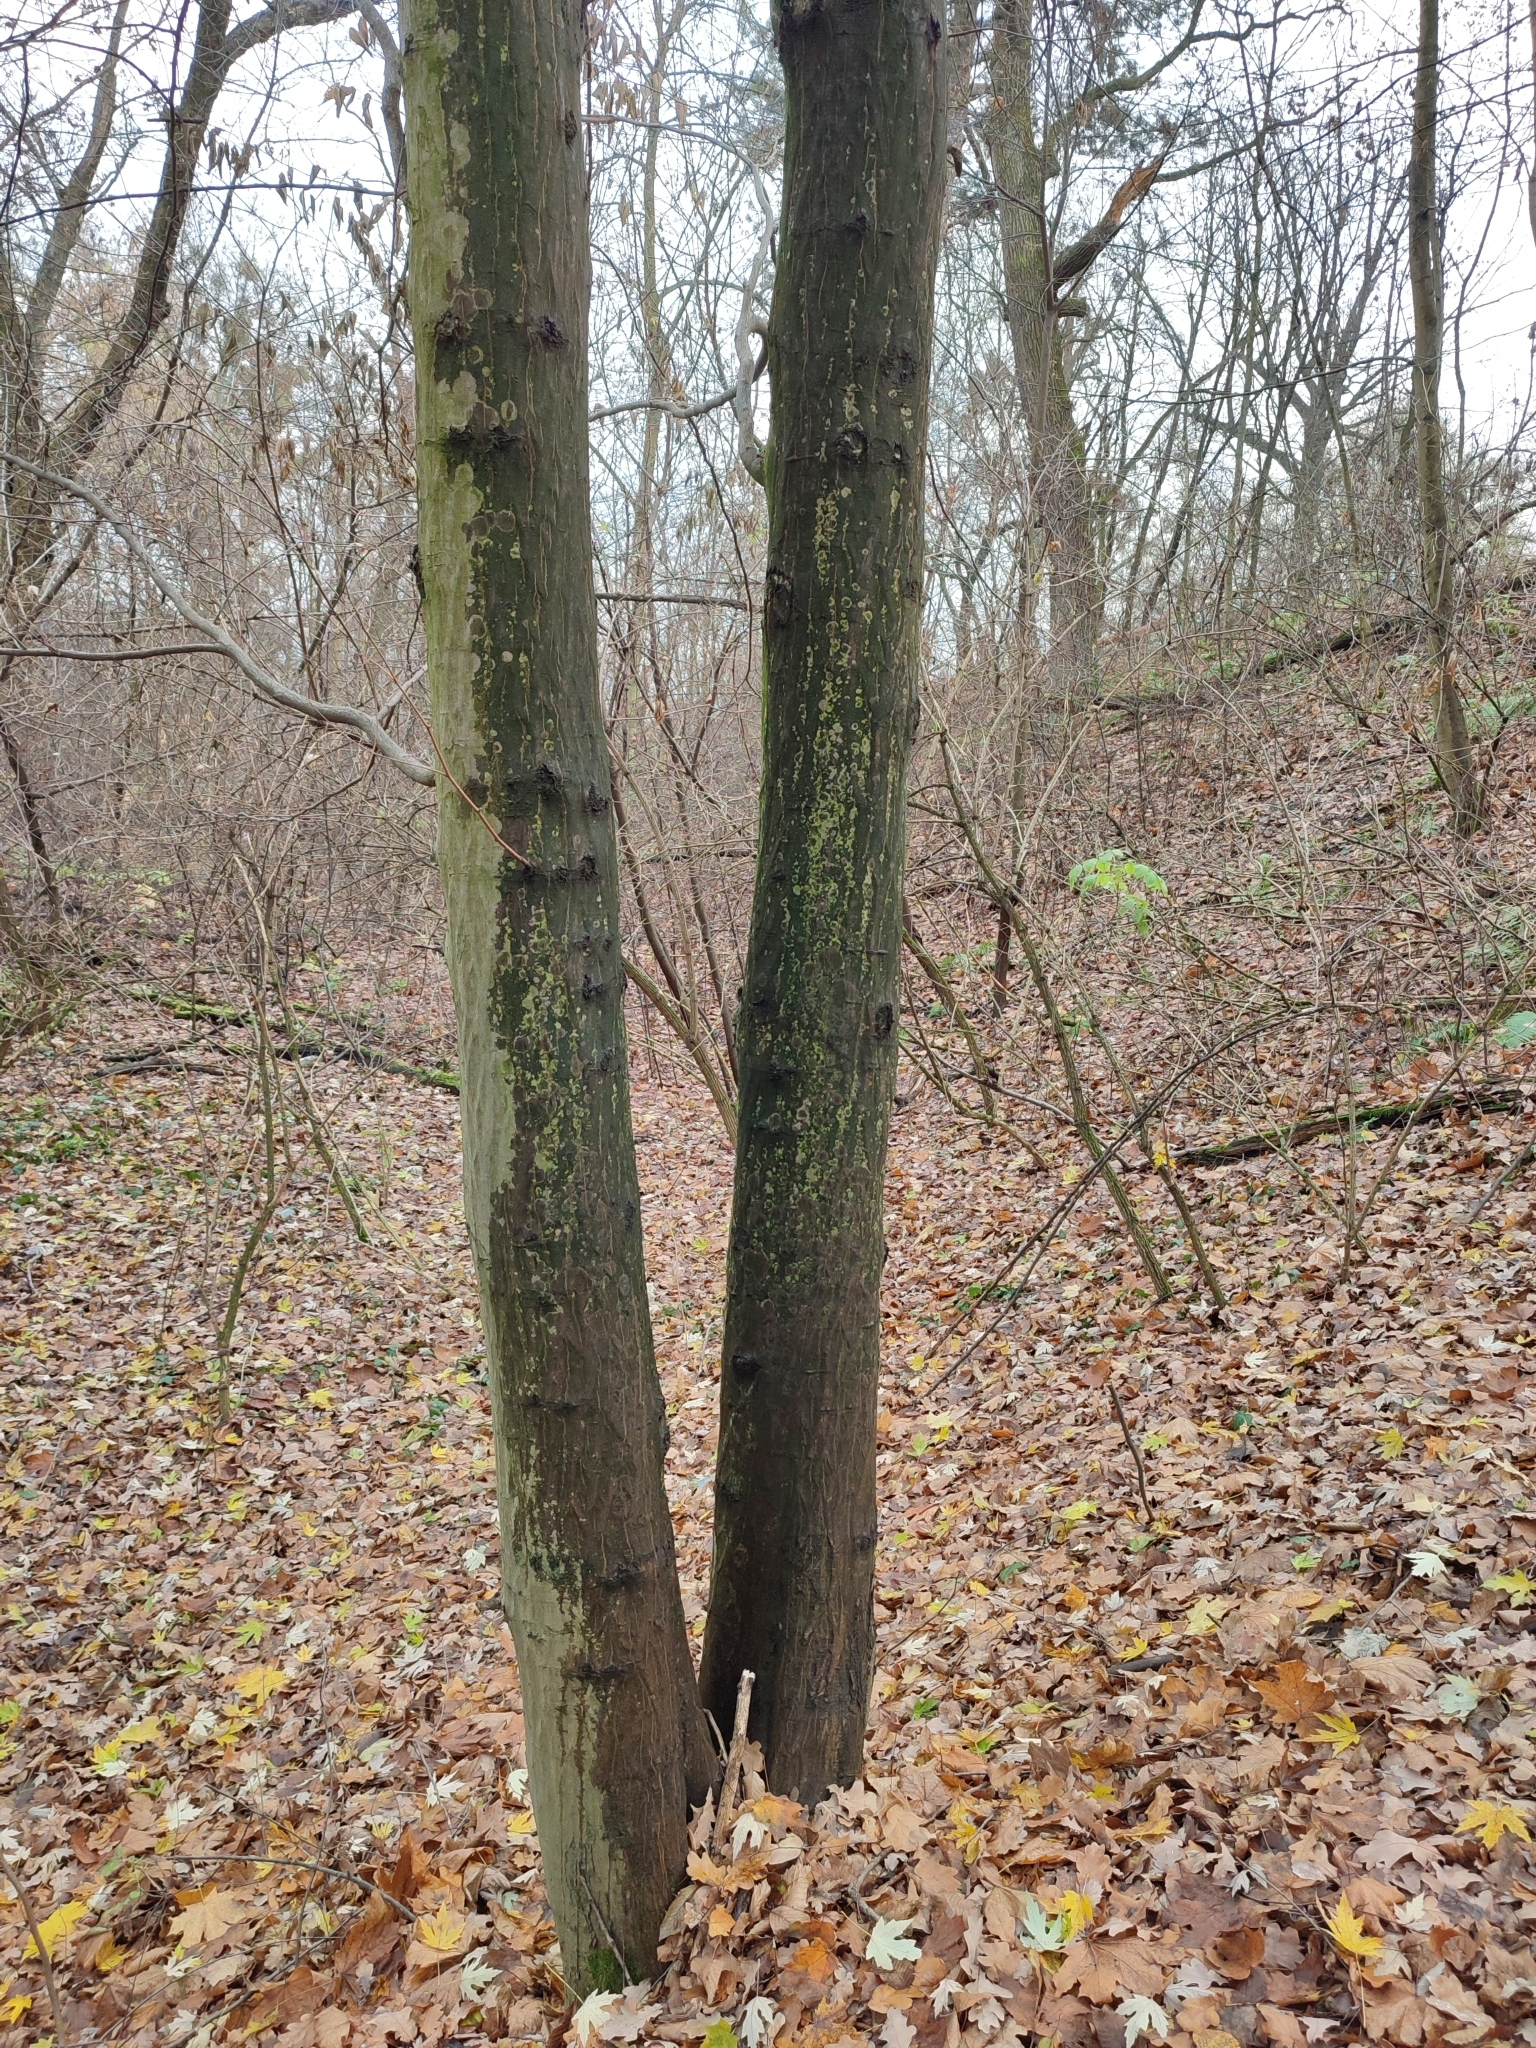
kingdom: Plantae
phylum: Tracheophyta
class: Magnoliopsida
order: Fagales
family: Betulaceae
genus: Carpinus
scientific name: Carpinus betulus
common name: Hornbeam
